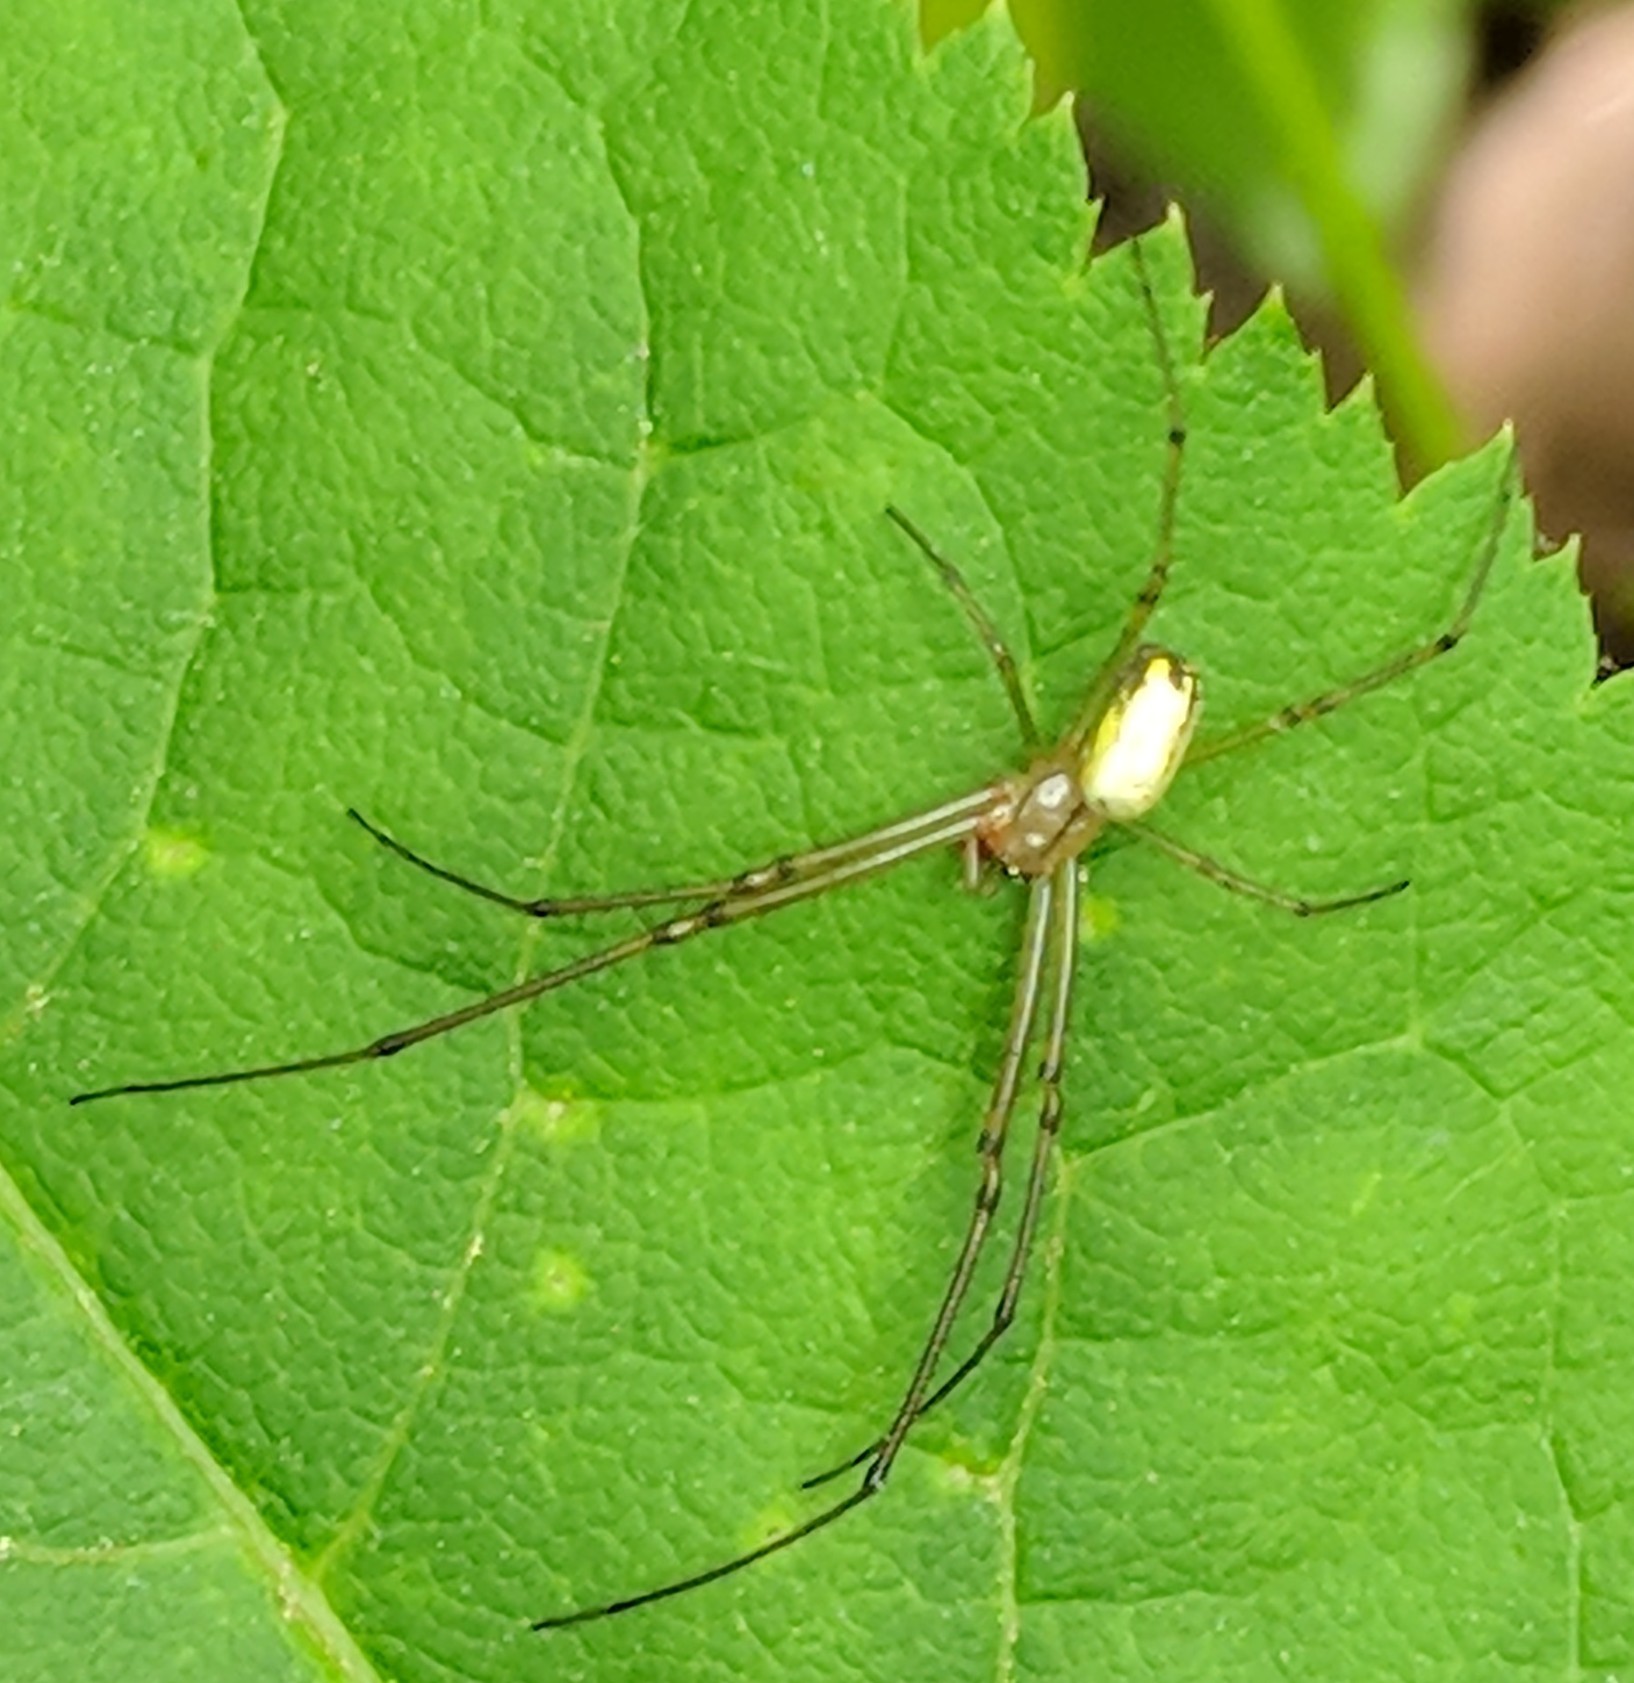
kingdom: Animalia
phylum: Arthropoda
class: Arachnida
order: Araneae
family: Tetragnathidae
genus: Leucauge
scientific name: Leucauge venusta
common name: Longjawed orb weavers
